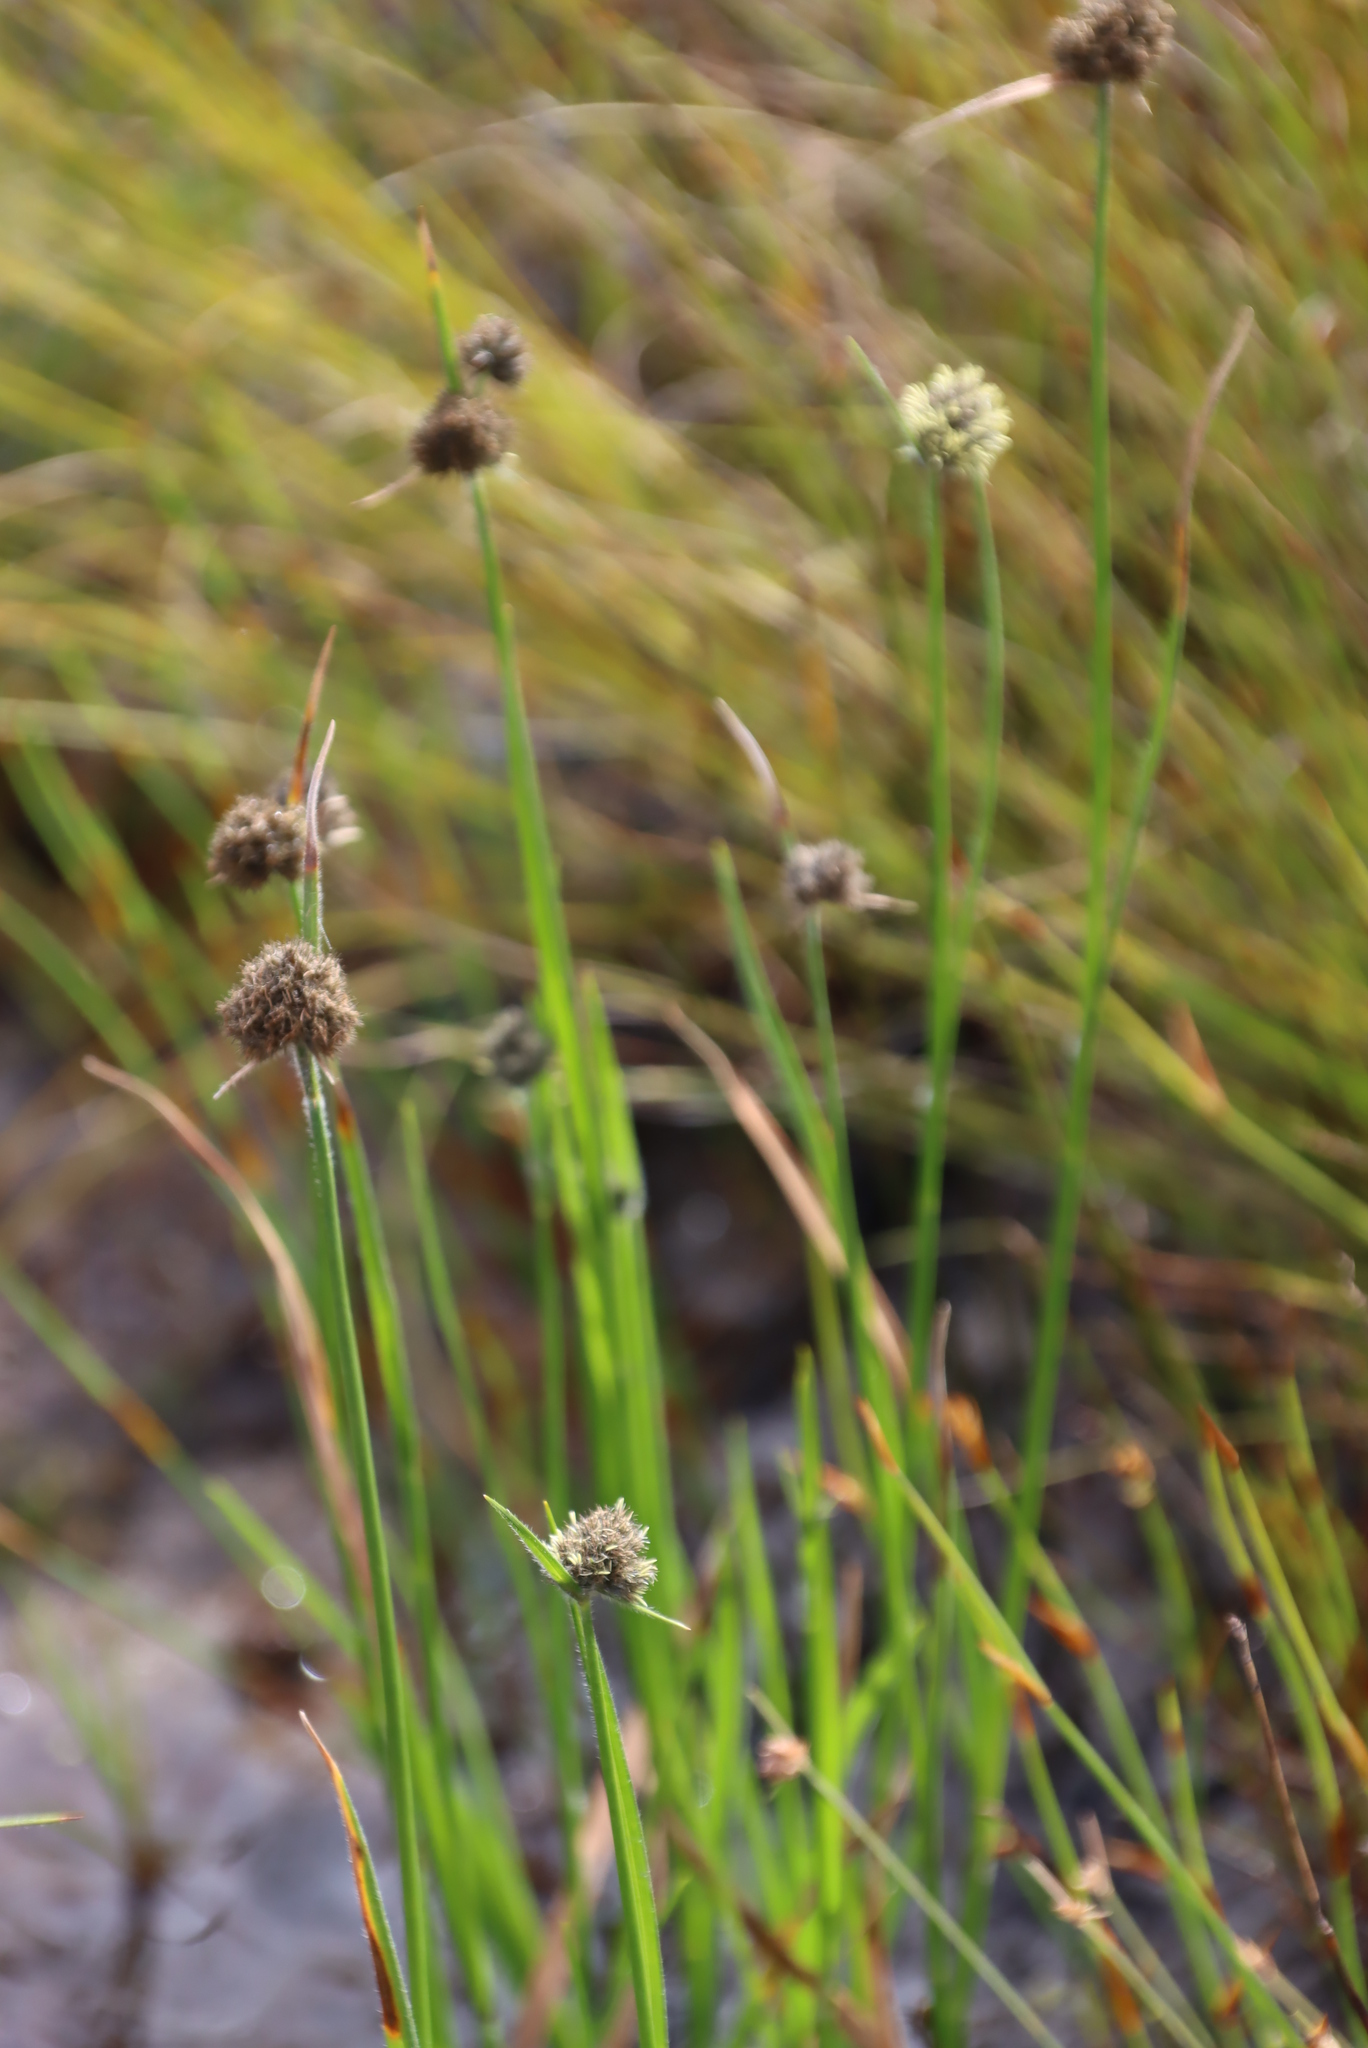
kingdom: Plantae
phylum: Tracheophyta
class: Liliopsida
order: Poales
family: Cyperaceae
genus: Fuirena
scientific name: Fuirena hirsuta
